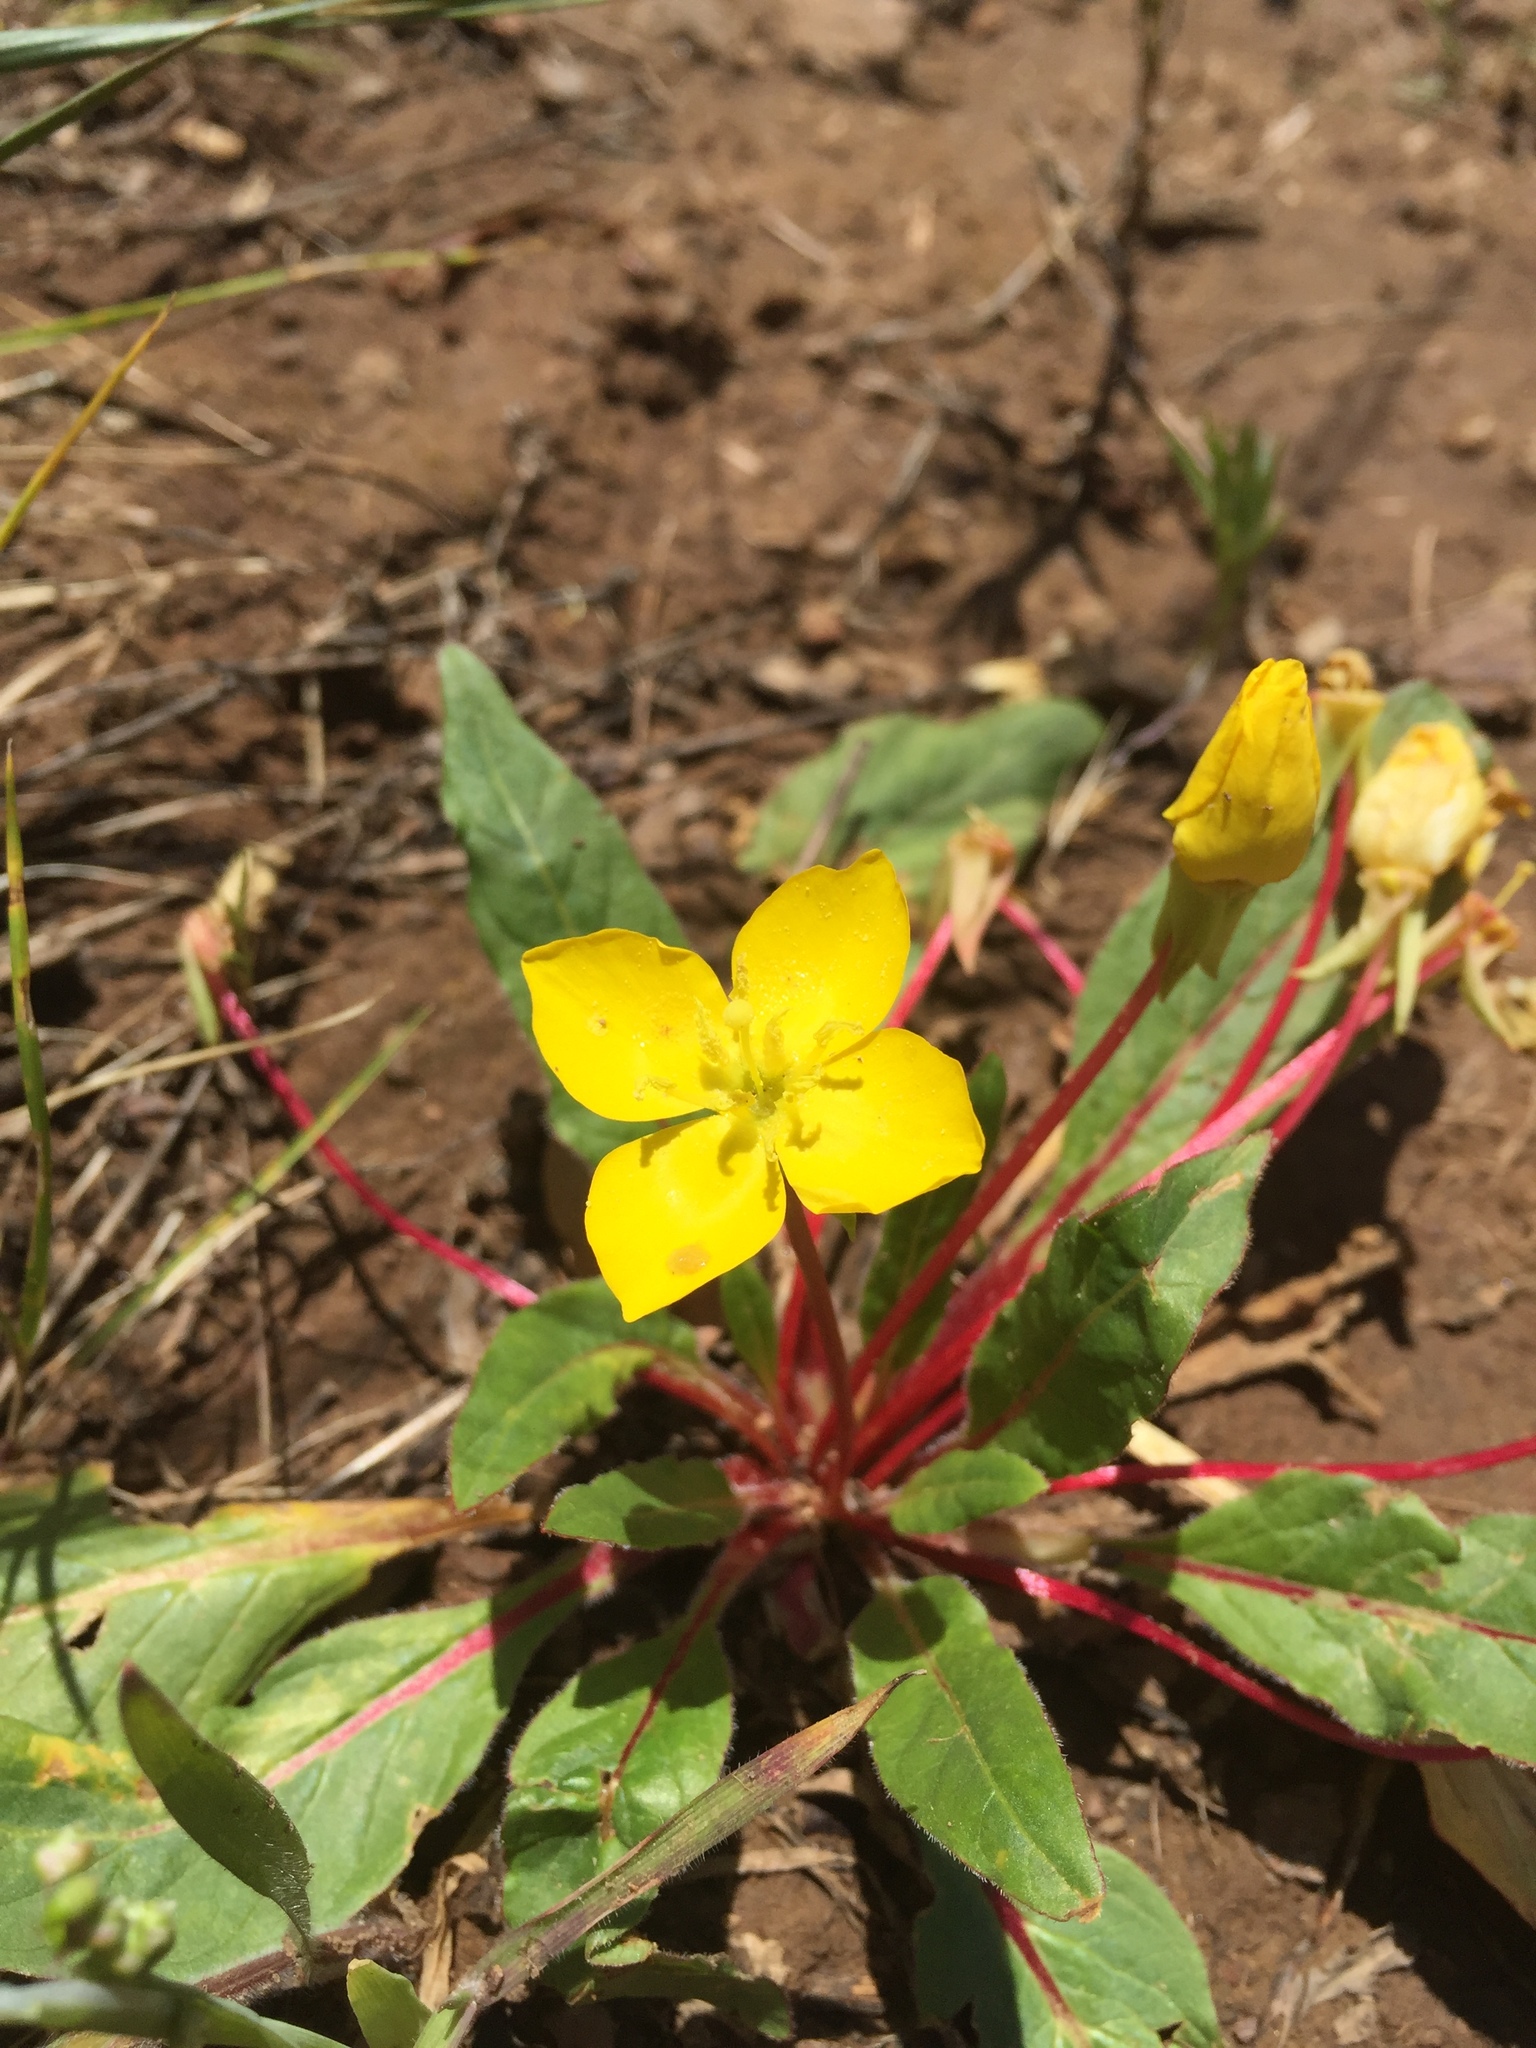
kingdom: Plantae
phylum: Tracheophyta
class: Magnoliopsida
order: Myrtales
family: Onagraceae
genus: Taraxia
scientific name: Taraxia ovata
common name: Goldeneggs
